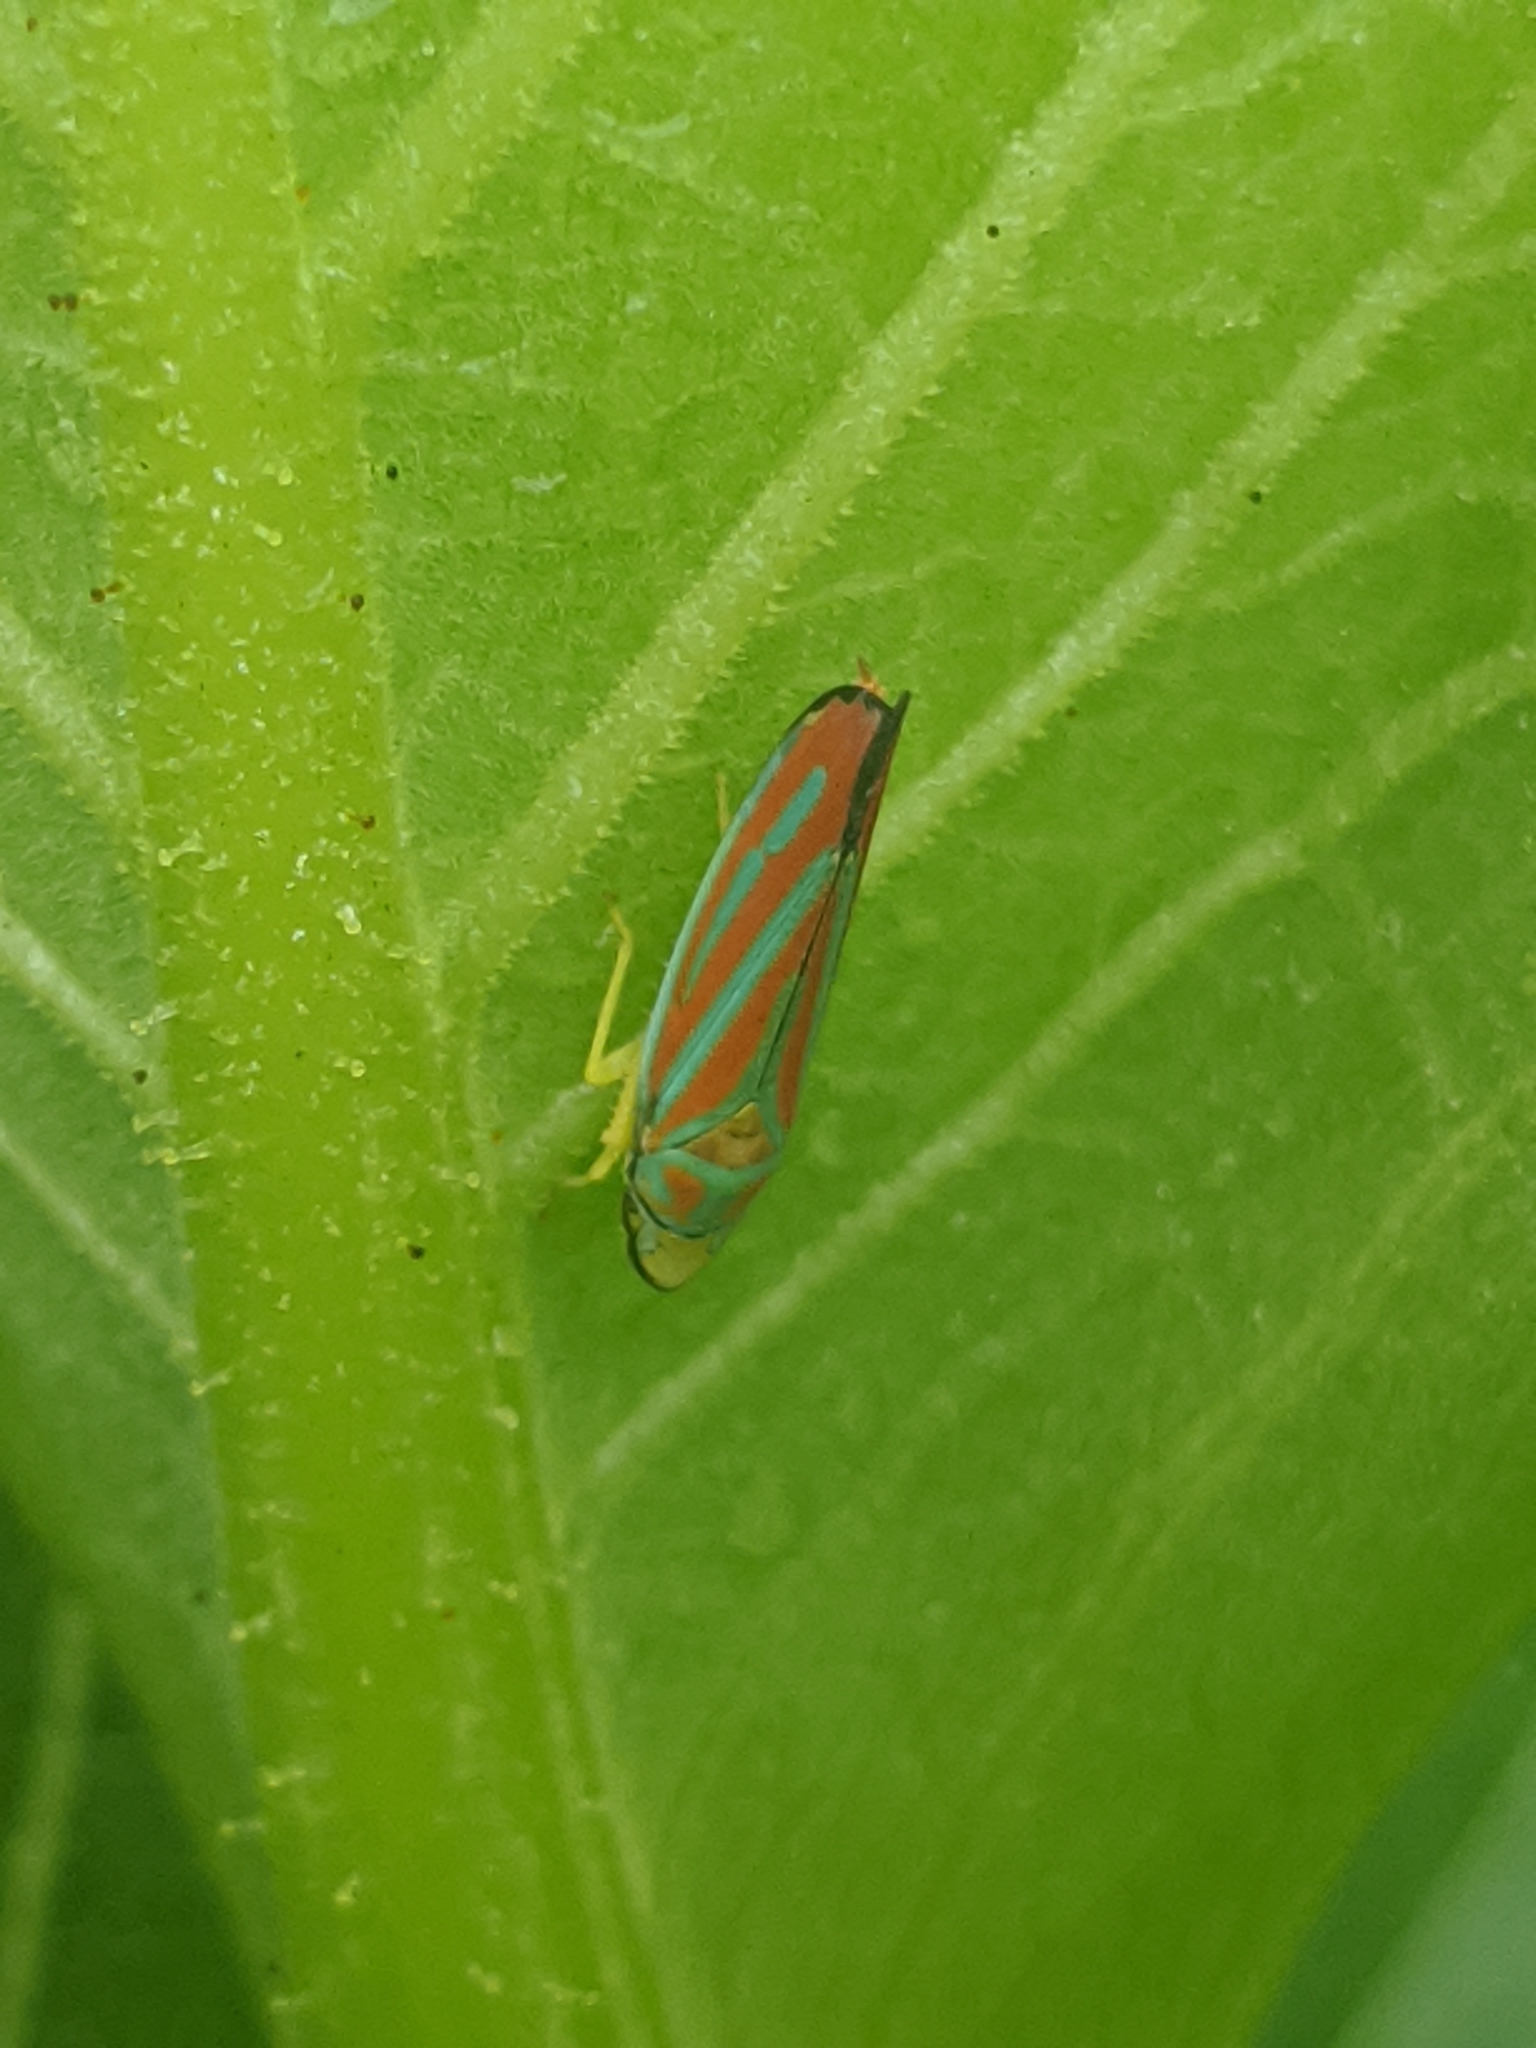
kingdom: Animalia
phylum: Arthropoda
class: Insecta
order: Hemiptera
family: Cicadellidae
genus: Graphocephala
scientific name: Graphocephala coccinea
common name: Candy-striped leafhopper
